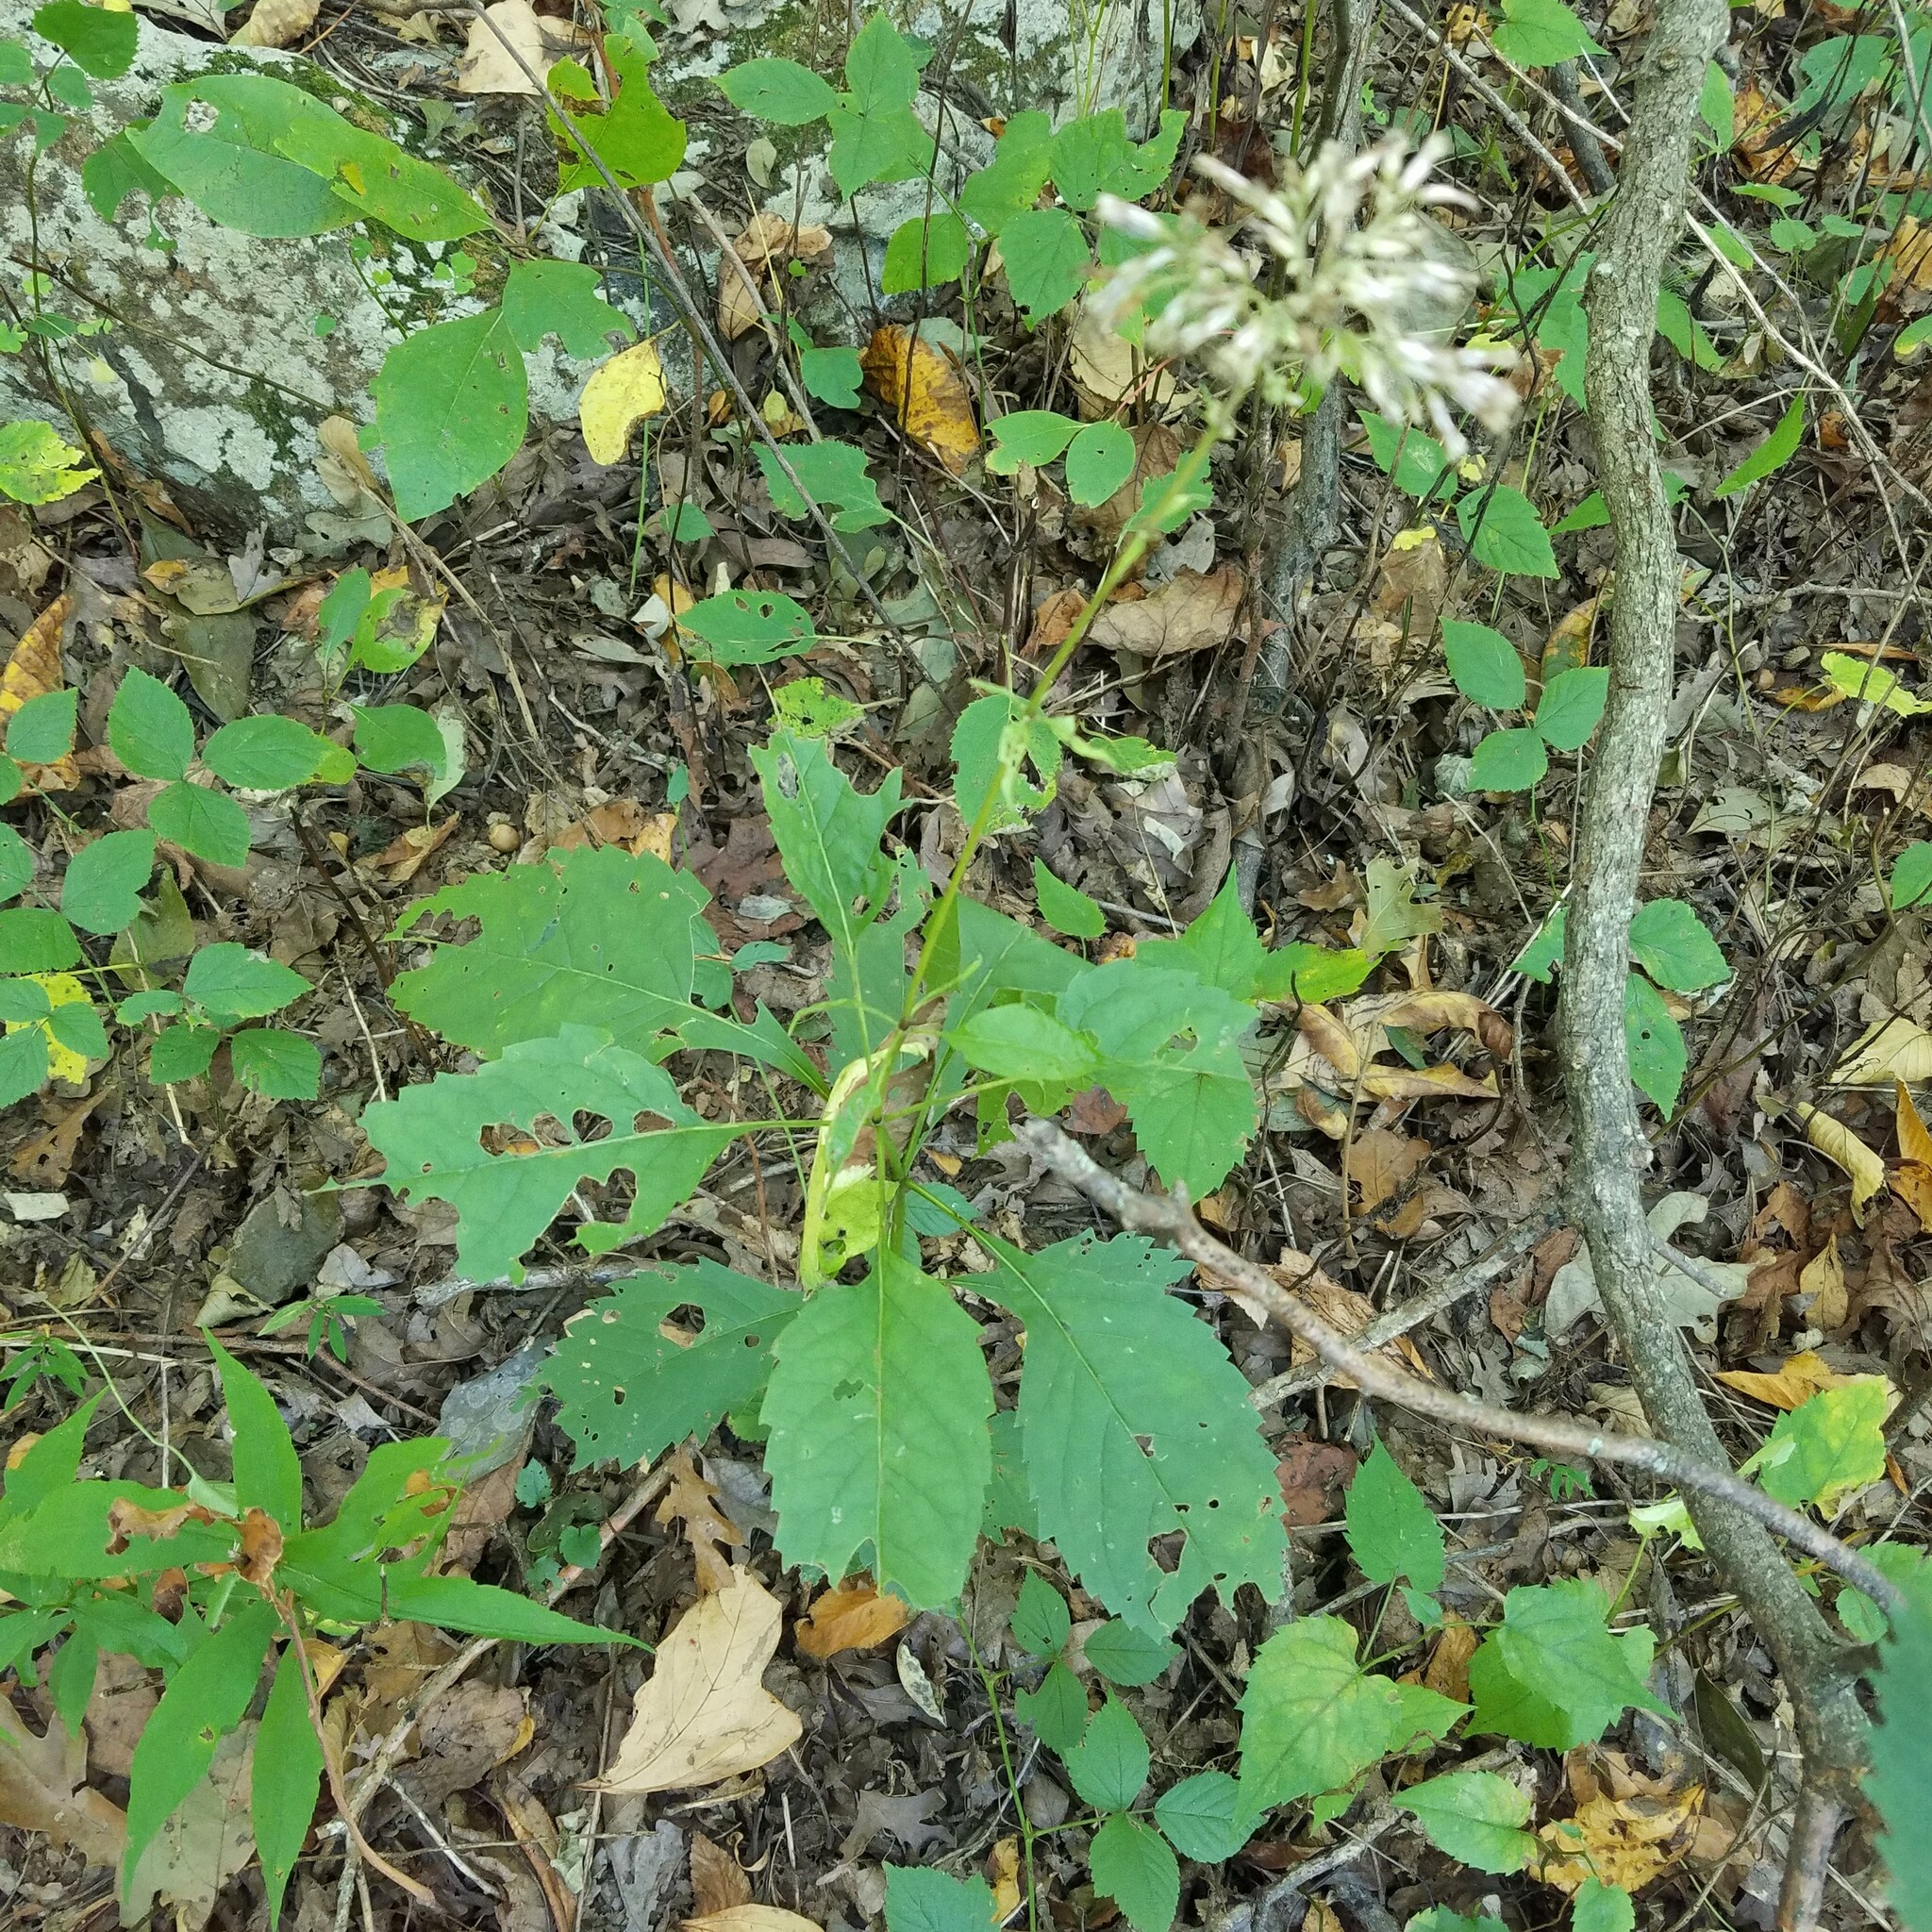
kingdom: Plantae
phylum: Tracheophyta
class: Magnoliopsida
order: Asterales
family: Asteraceae
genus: Eutrochium
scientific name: Eutrochium purpureum
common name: Gravelroot
